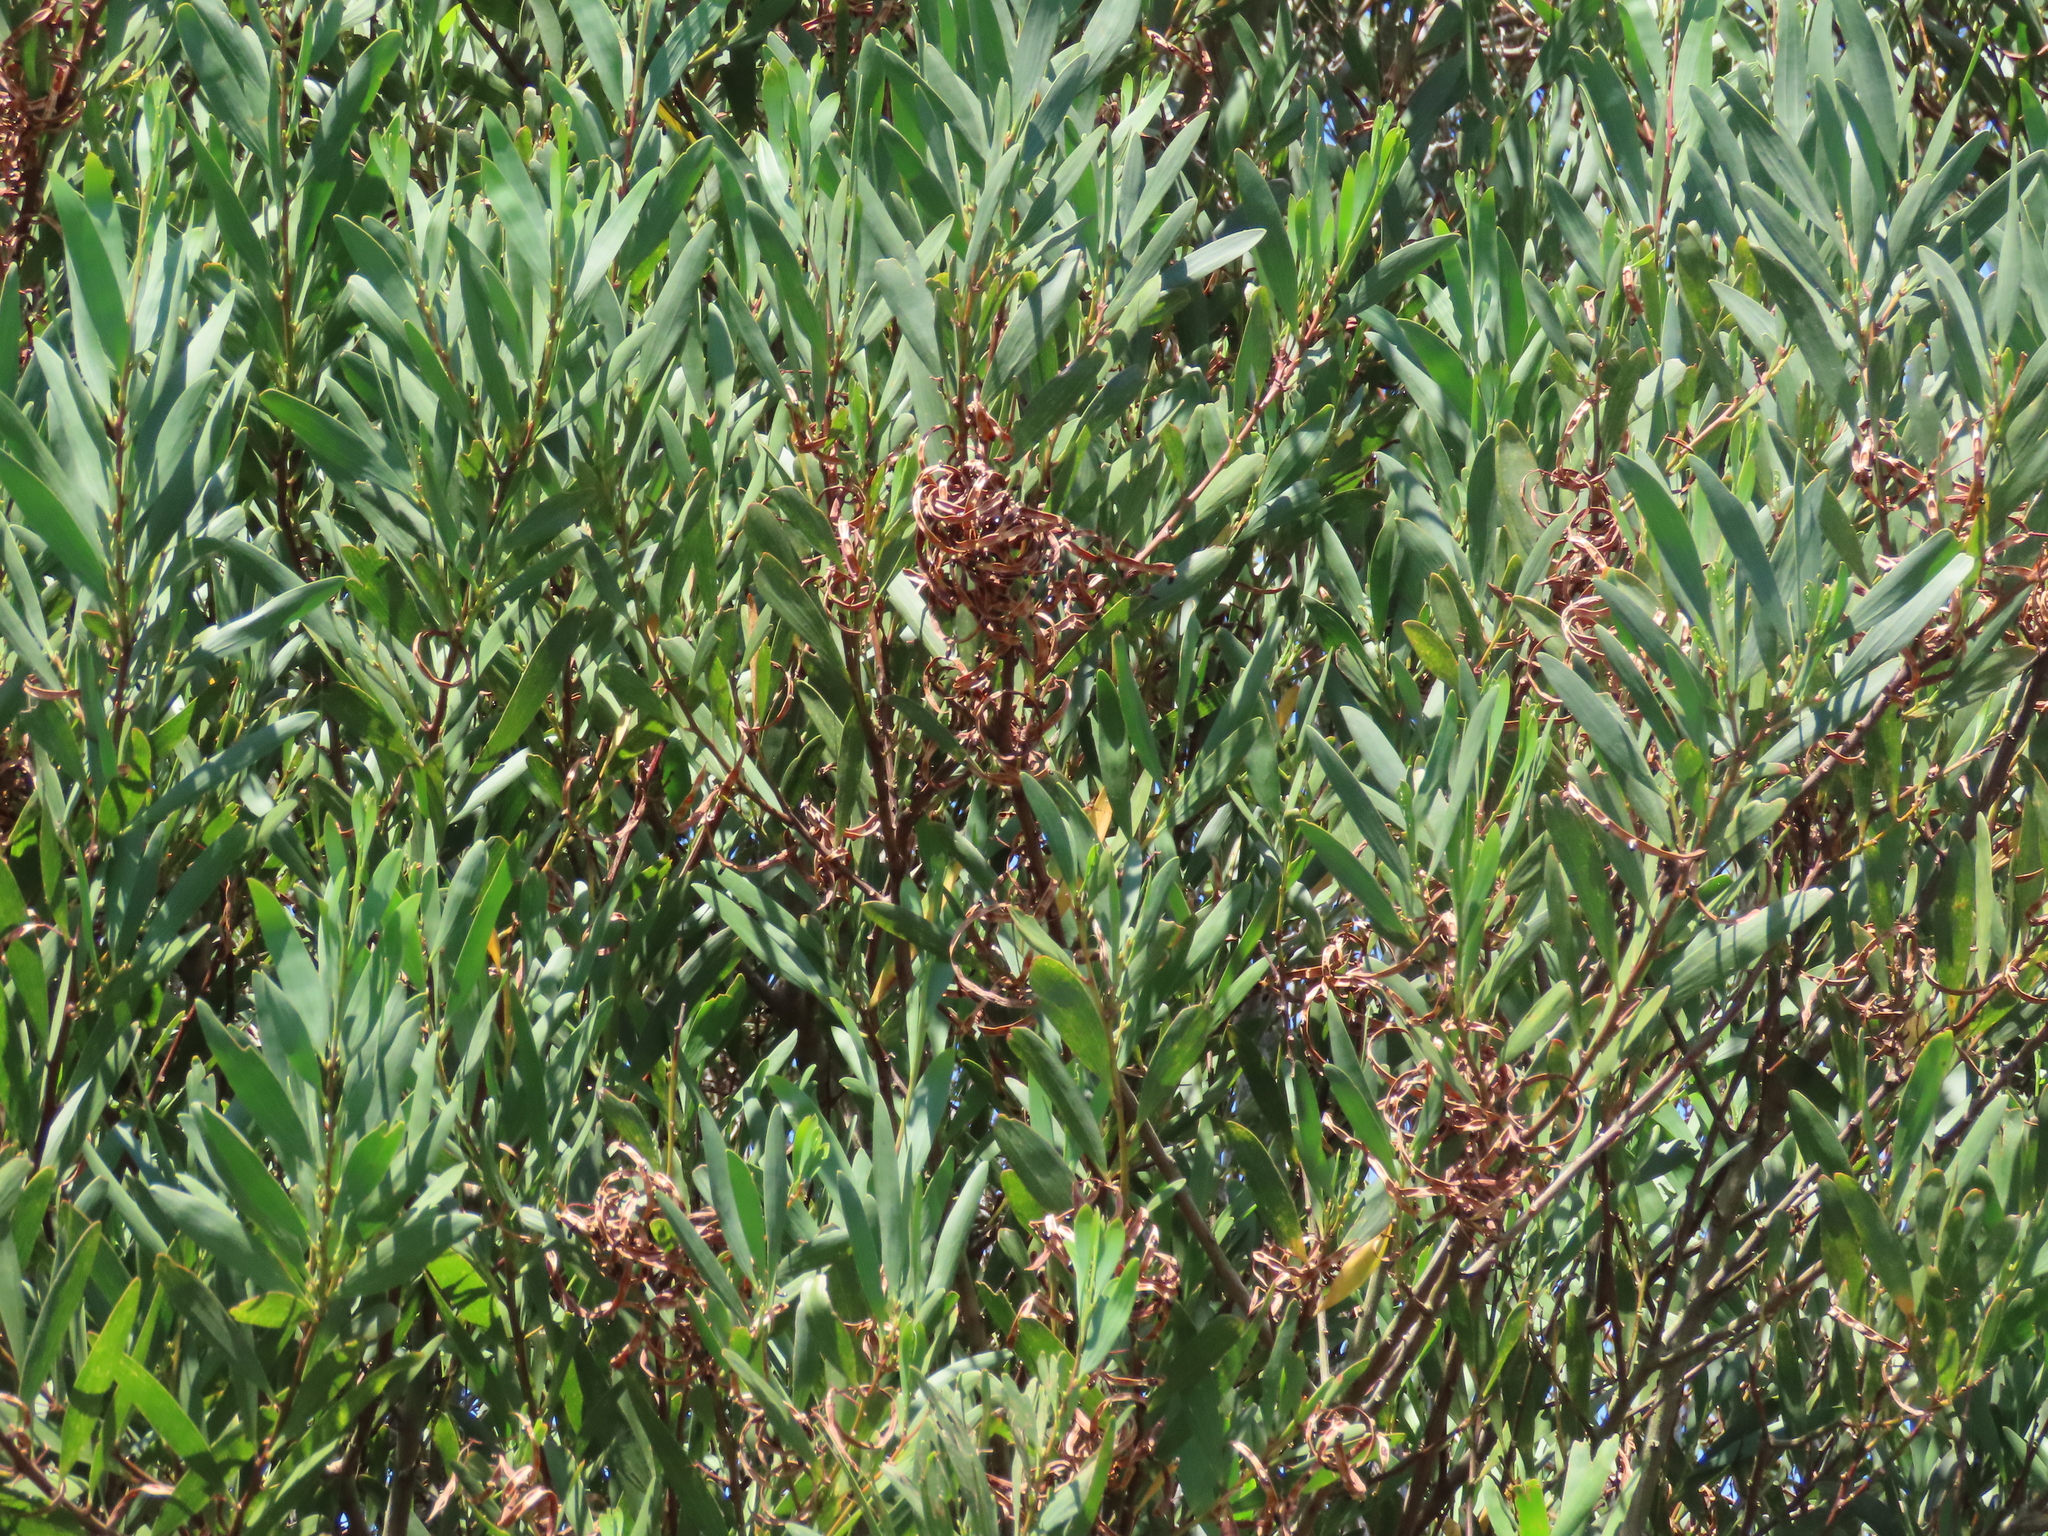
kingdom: Plantae
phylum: Tracheophyta
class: Magnoliopsida
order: Fabales
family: Fabaceae
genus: Acacia
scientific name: Acacia longifolia
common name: Sydney golden wattle
